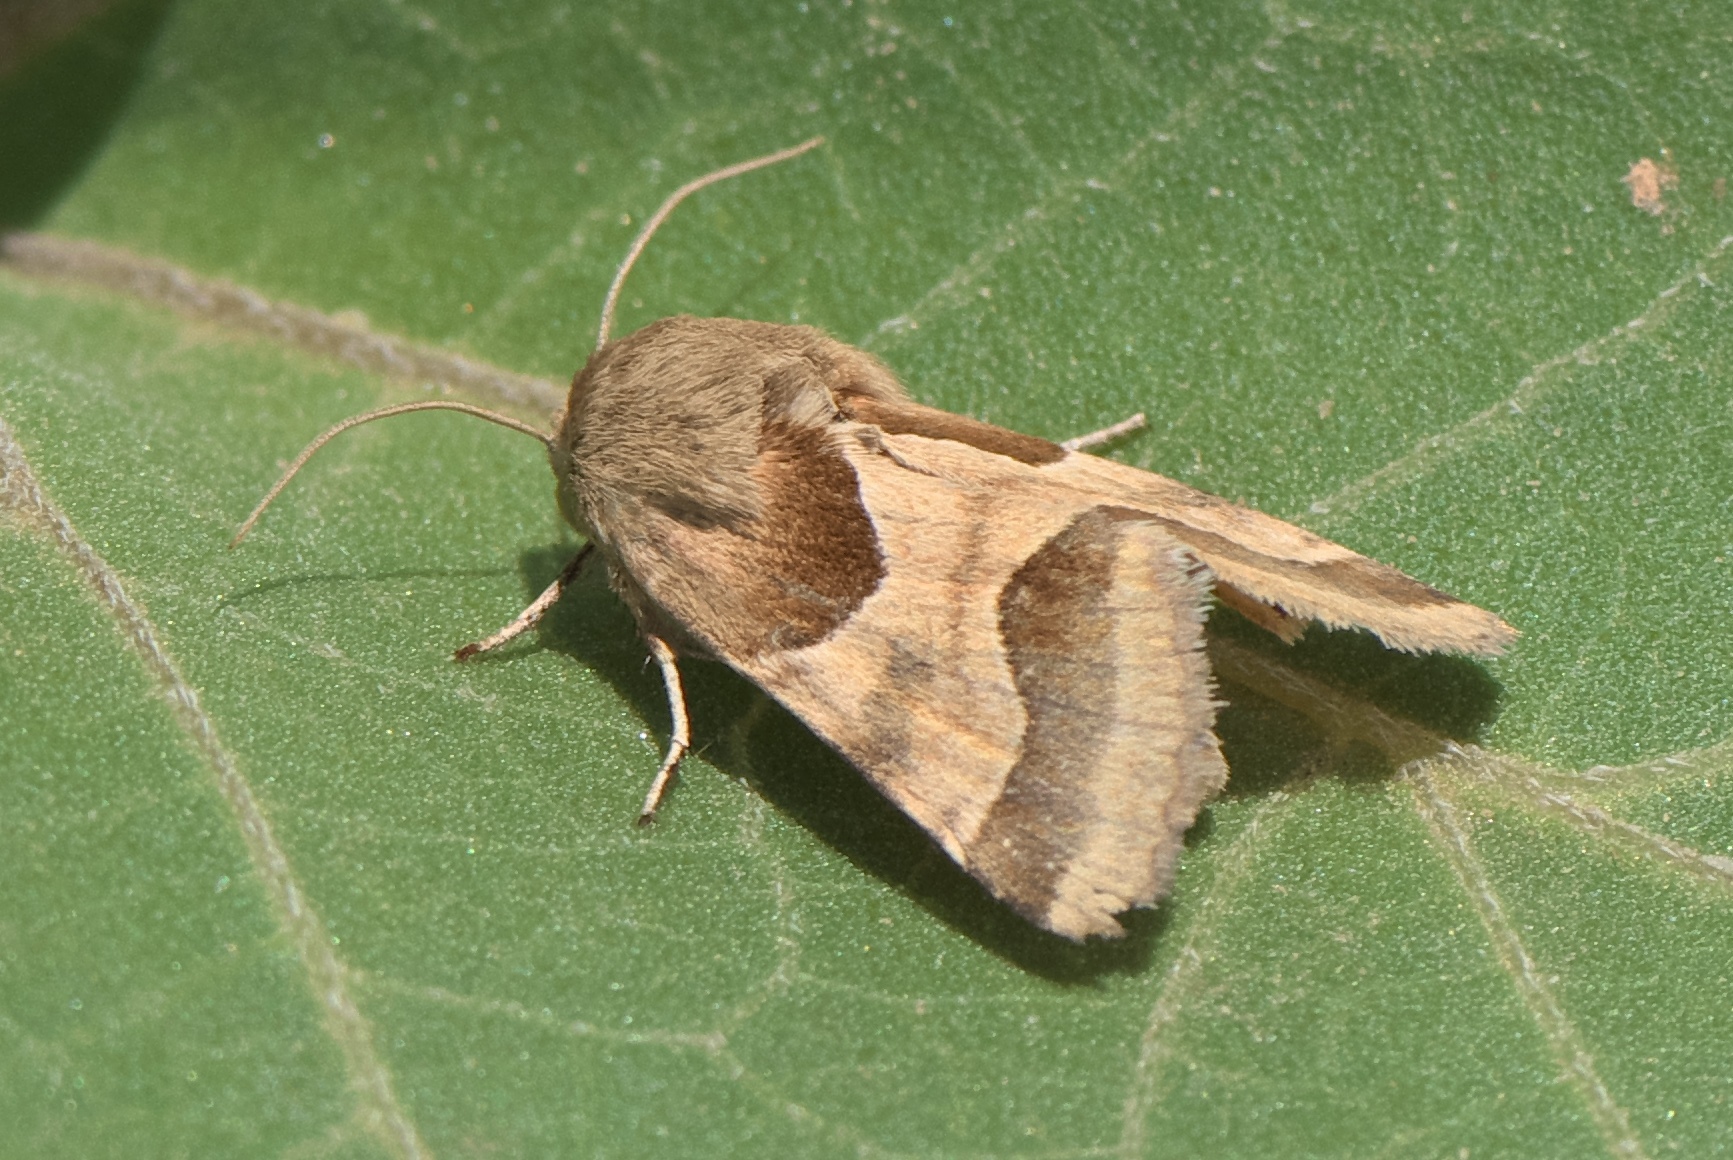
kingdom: Animalia
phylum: Arthropoda
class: Insecta
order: Lepidoptera
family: Noctuidae
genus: Schinia
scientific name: Schinia jaguarina
